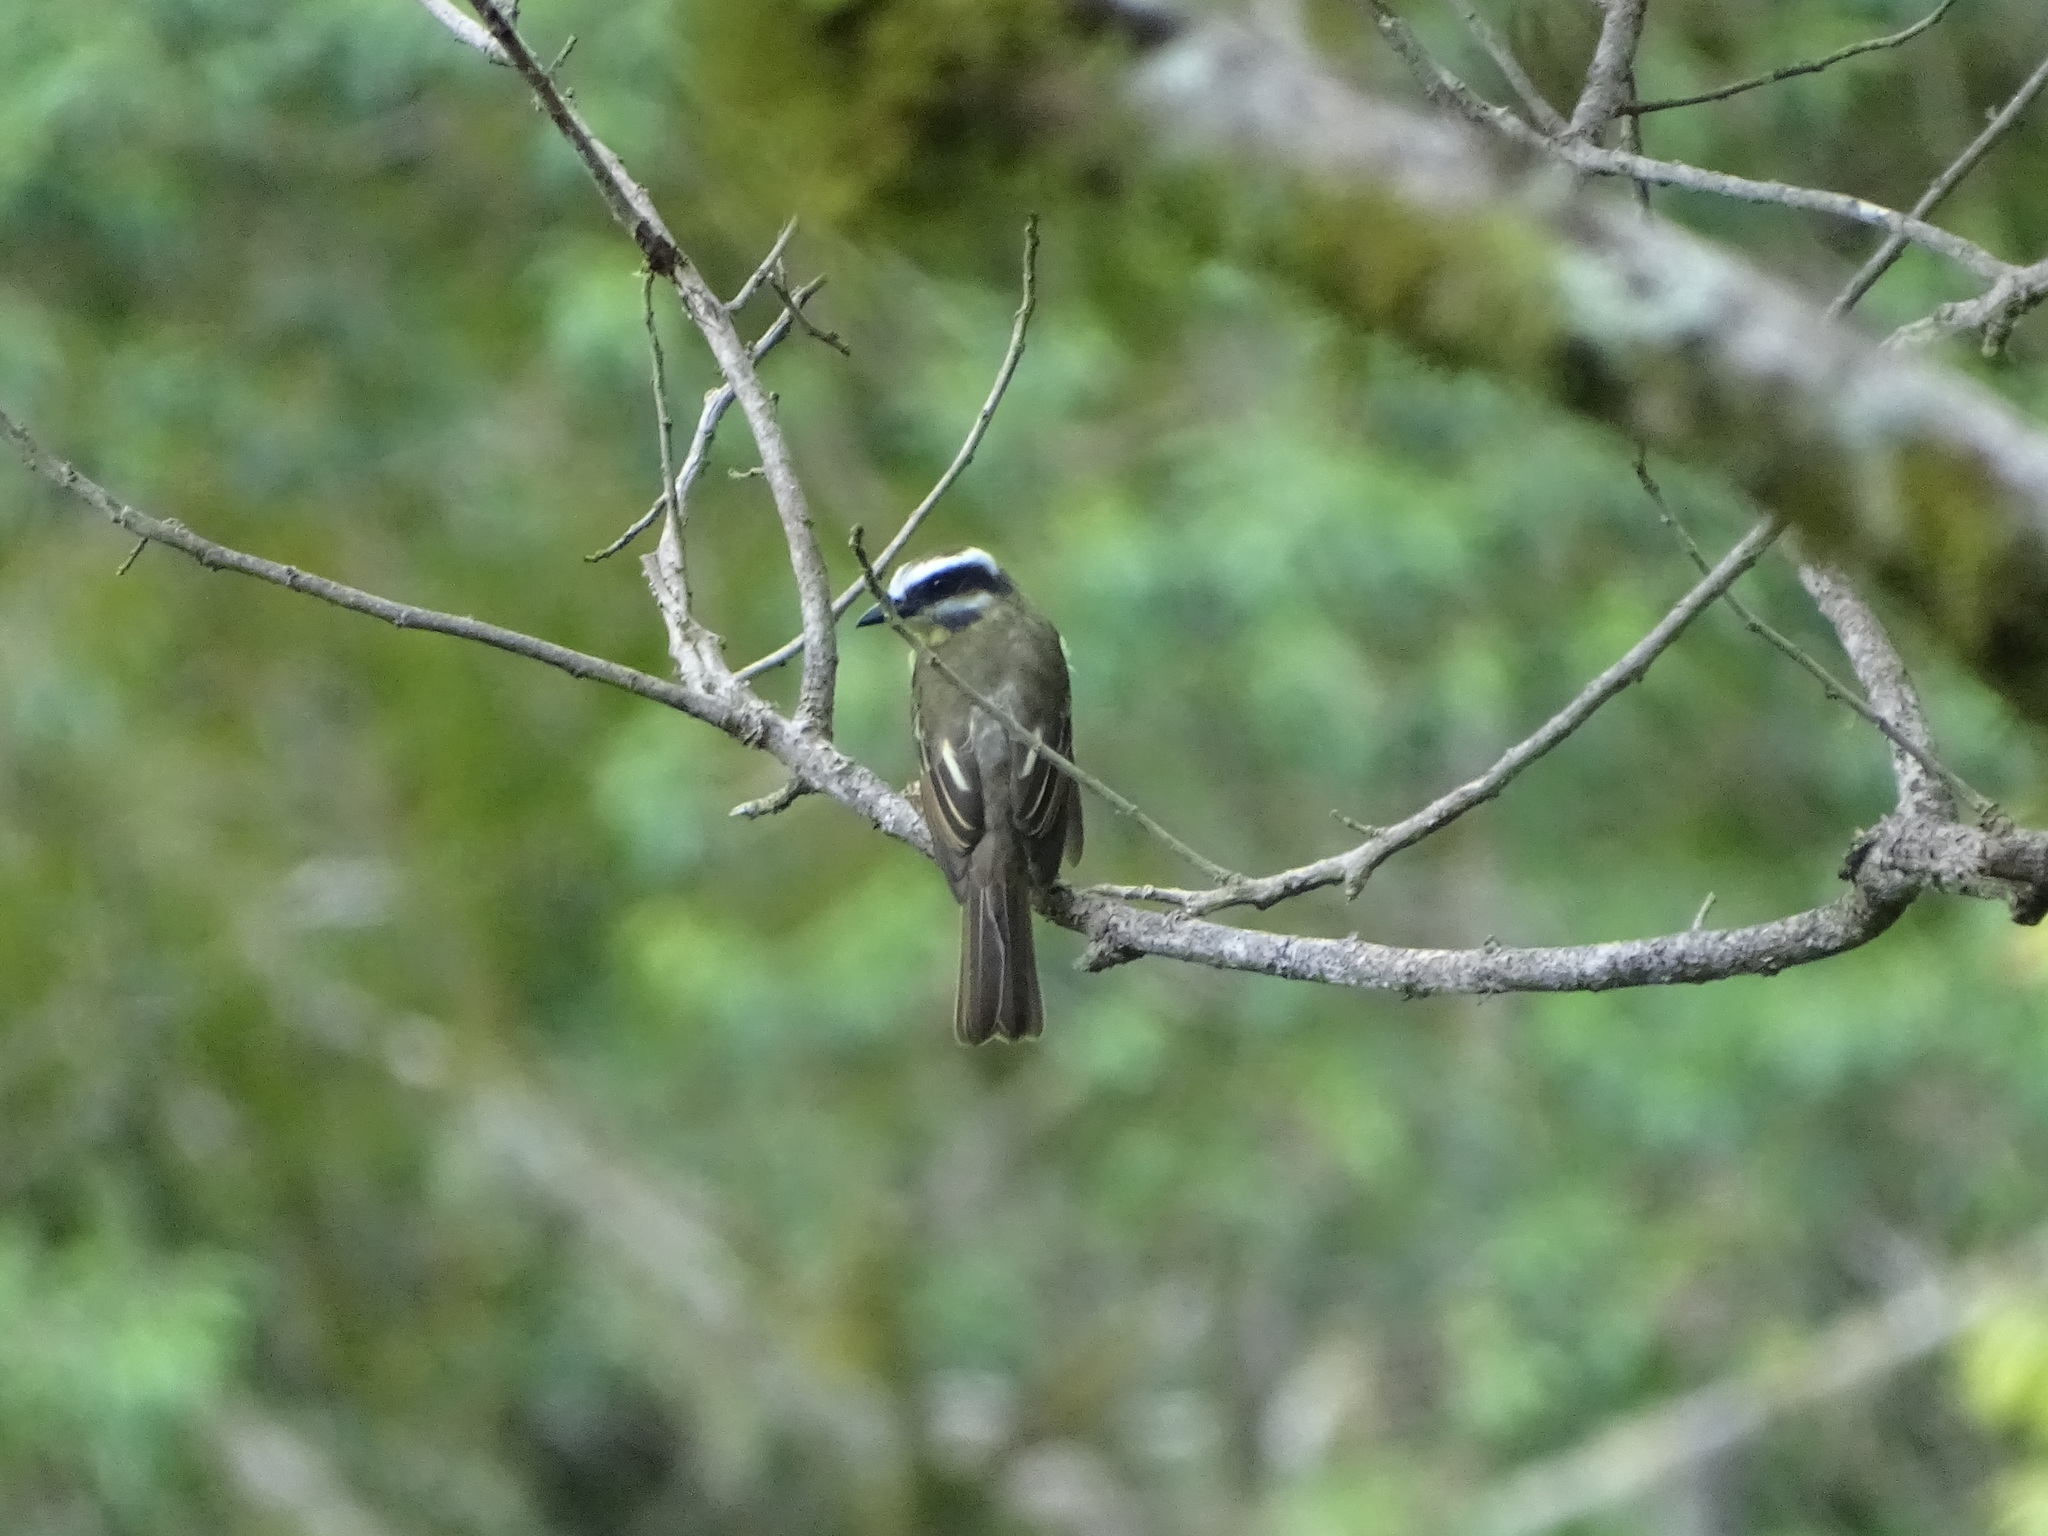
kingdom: Animalia
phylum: Chordata
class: Aves
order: Passeriformes
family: Tyrannidae
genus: Myiodynastes
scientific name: Myiodynastes hemichrysus
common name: Golden-bellied flycatcher
